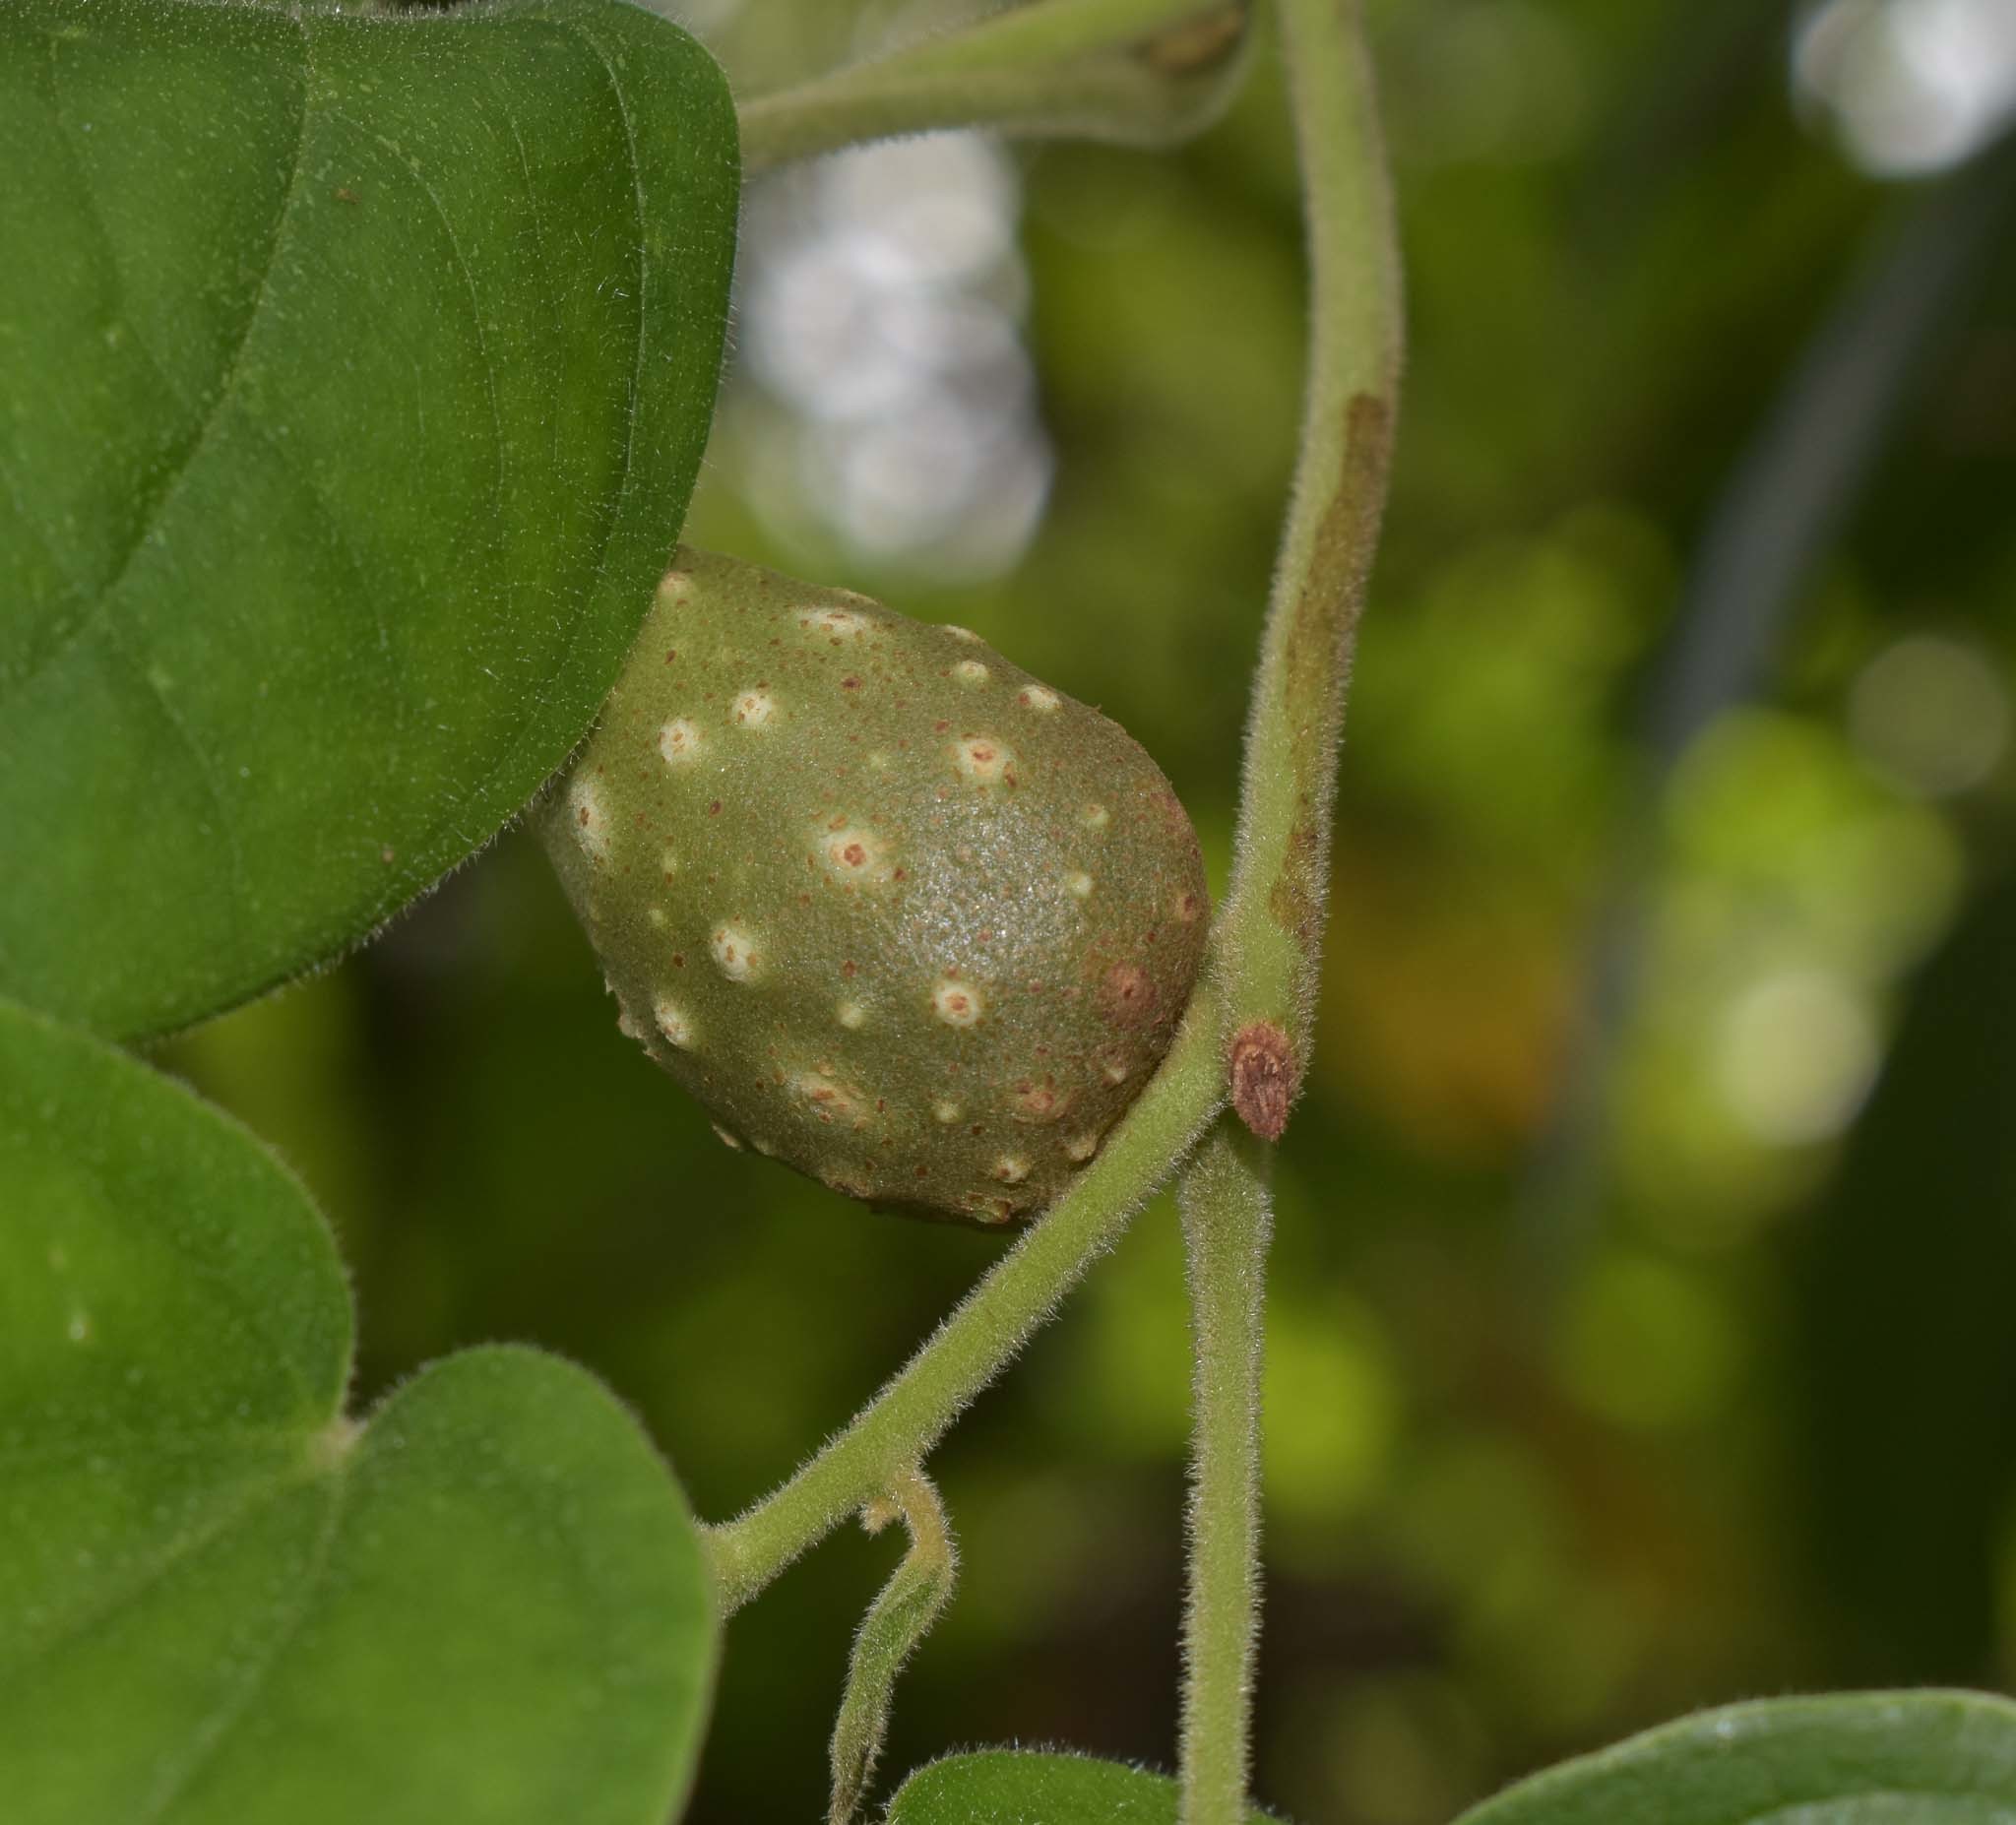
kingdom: Plantae
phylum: Tracheophyta
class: Liliopsida
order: Dioscoreales
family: Dioscoreaceae
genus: Dioscorea
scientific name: Dioscorea bulbifera
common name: Air yam
